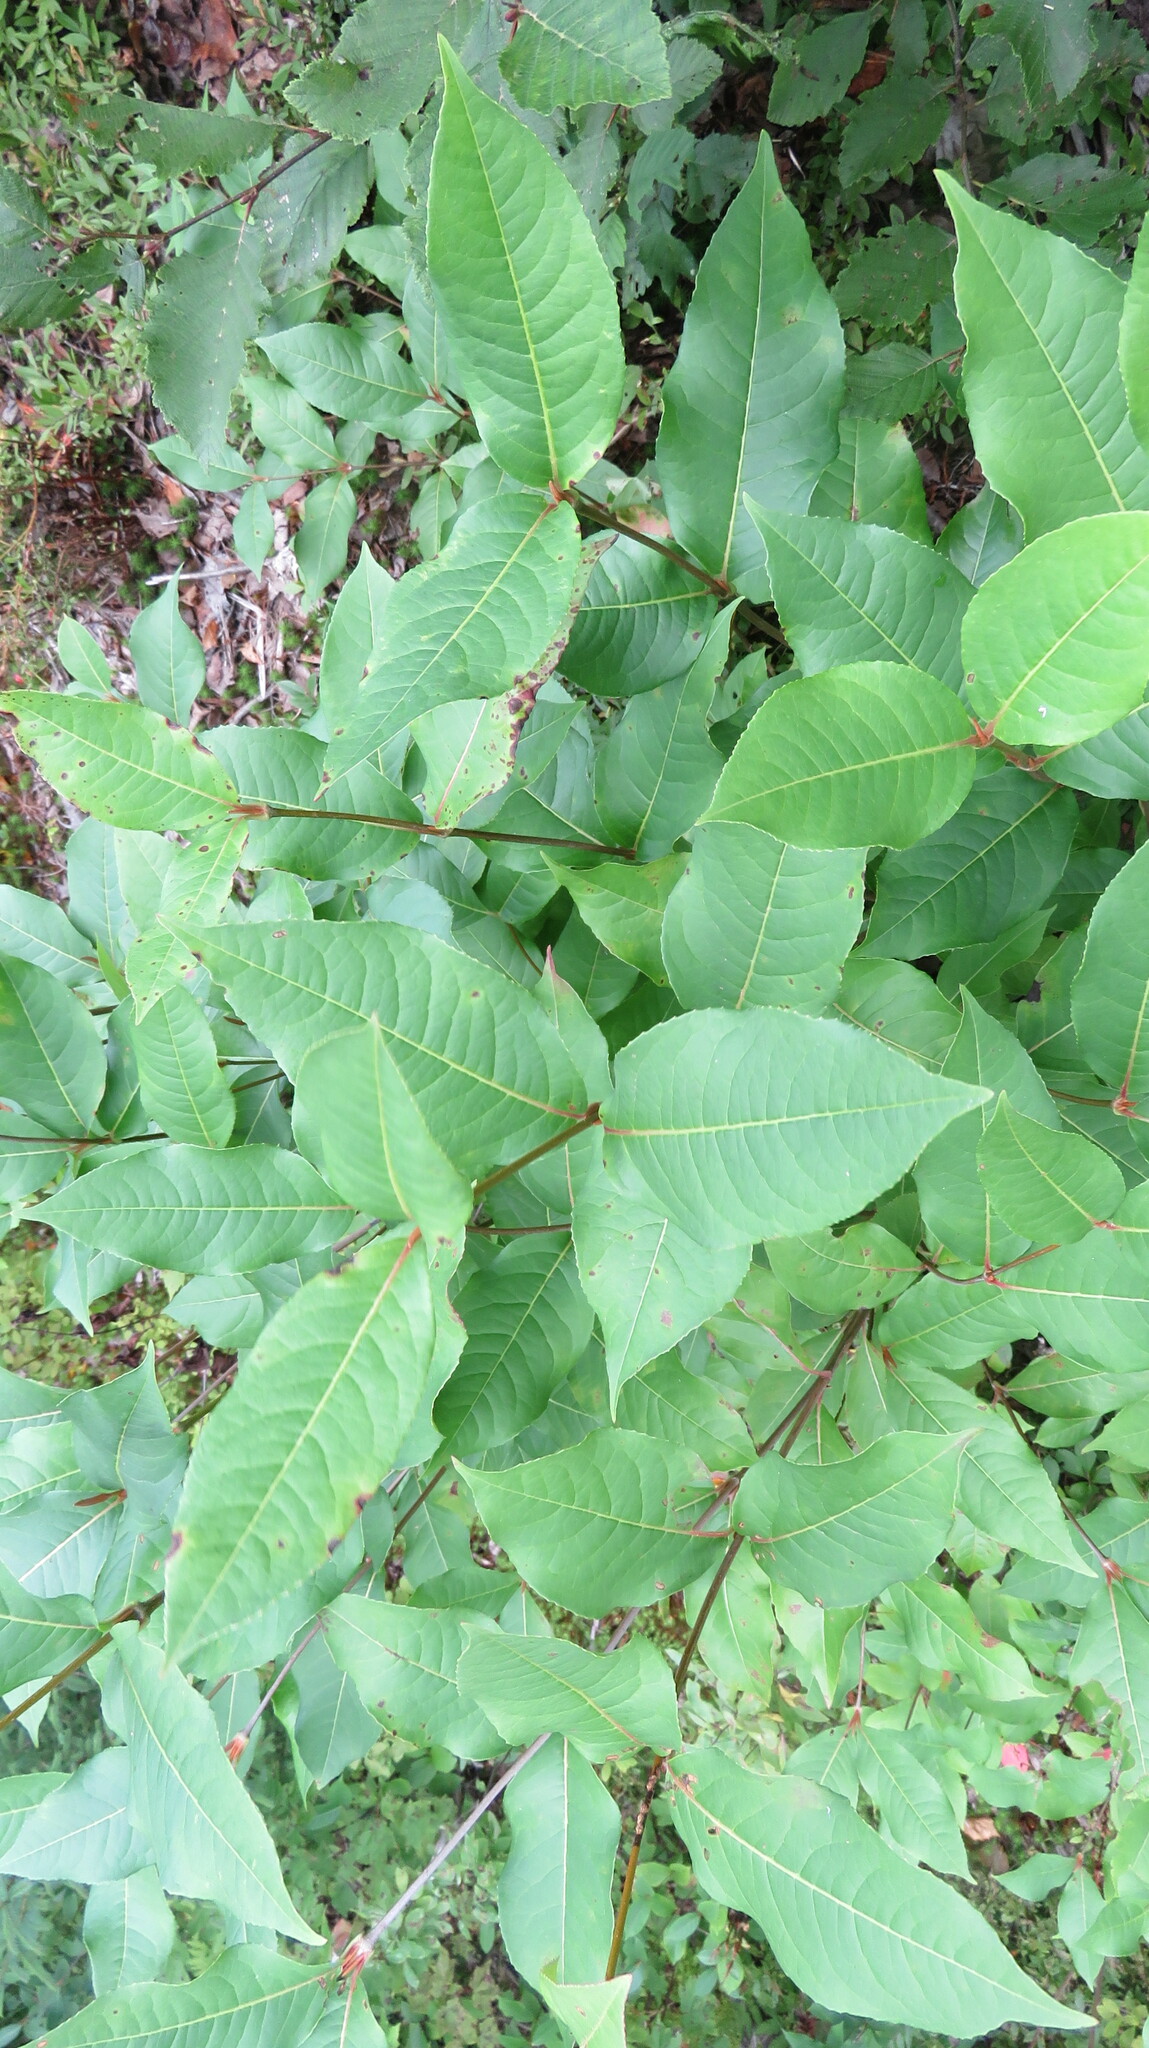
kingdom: Plantae
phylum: Tracheophyta
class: Magnoliopsida
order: Dipsacales
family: Viburnaceae
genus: Viburnum
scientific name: Viburnum cassinoides
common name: Swamp haw
